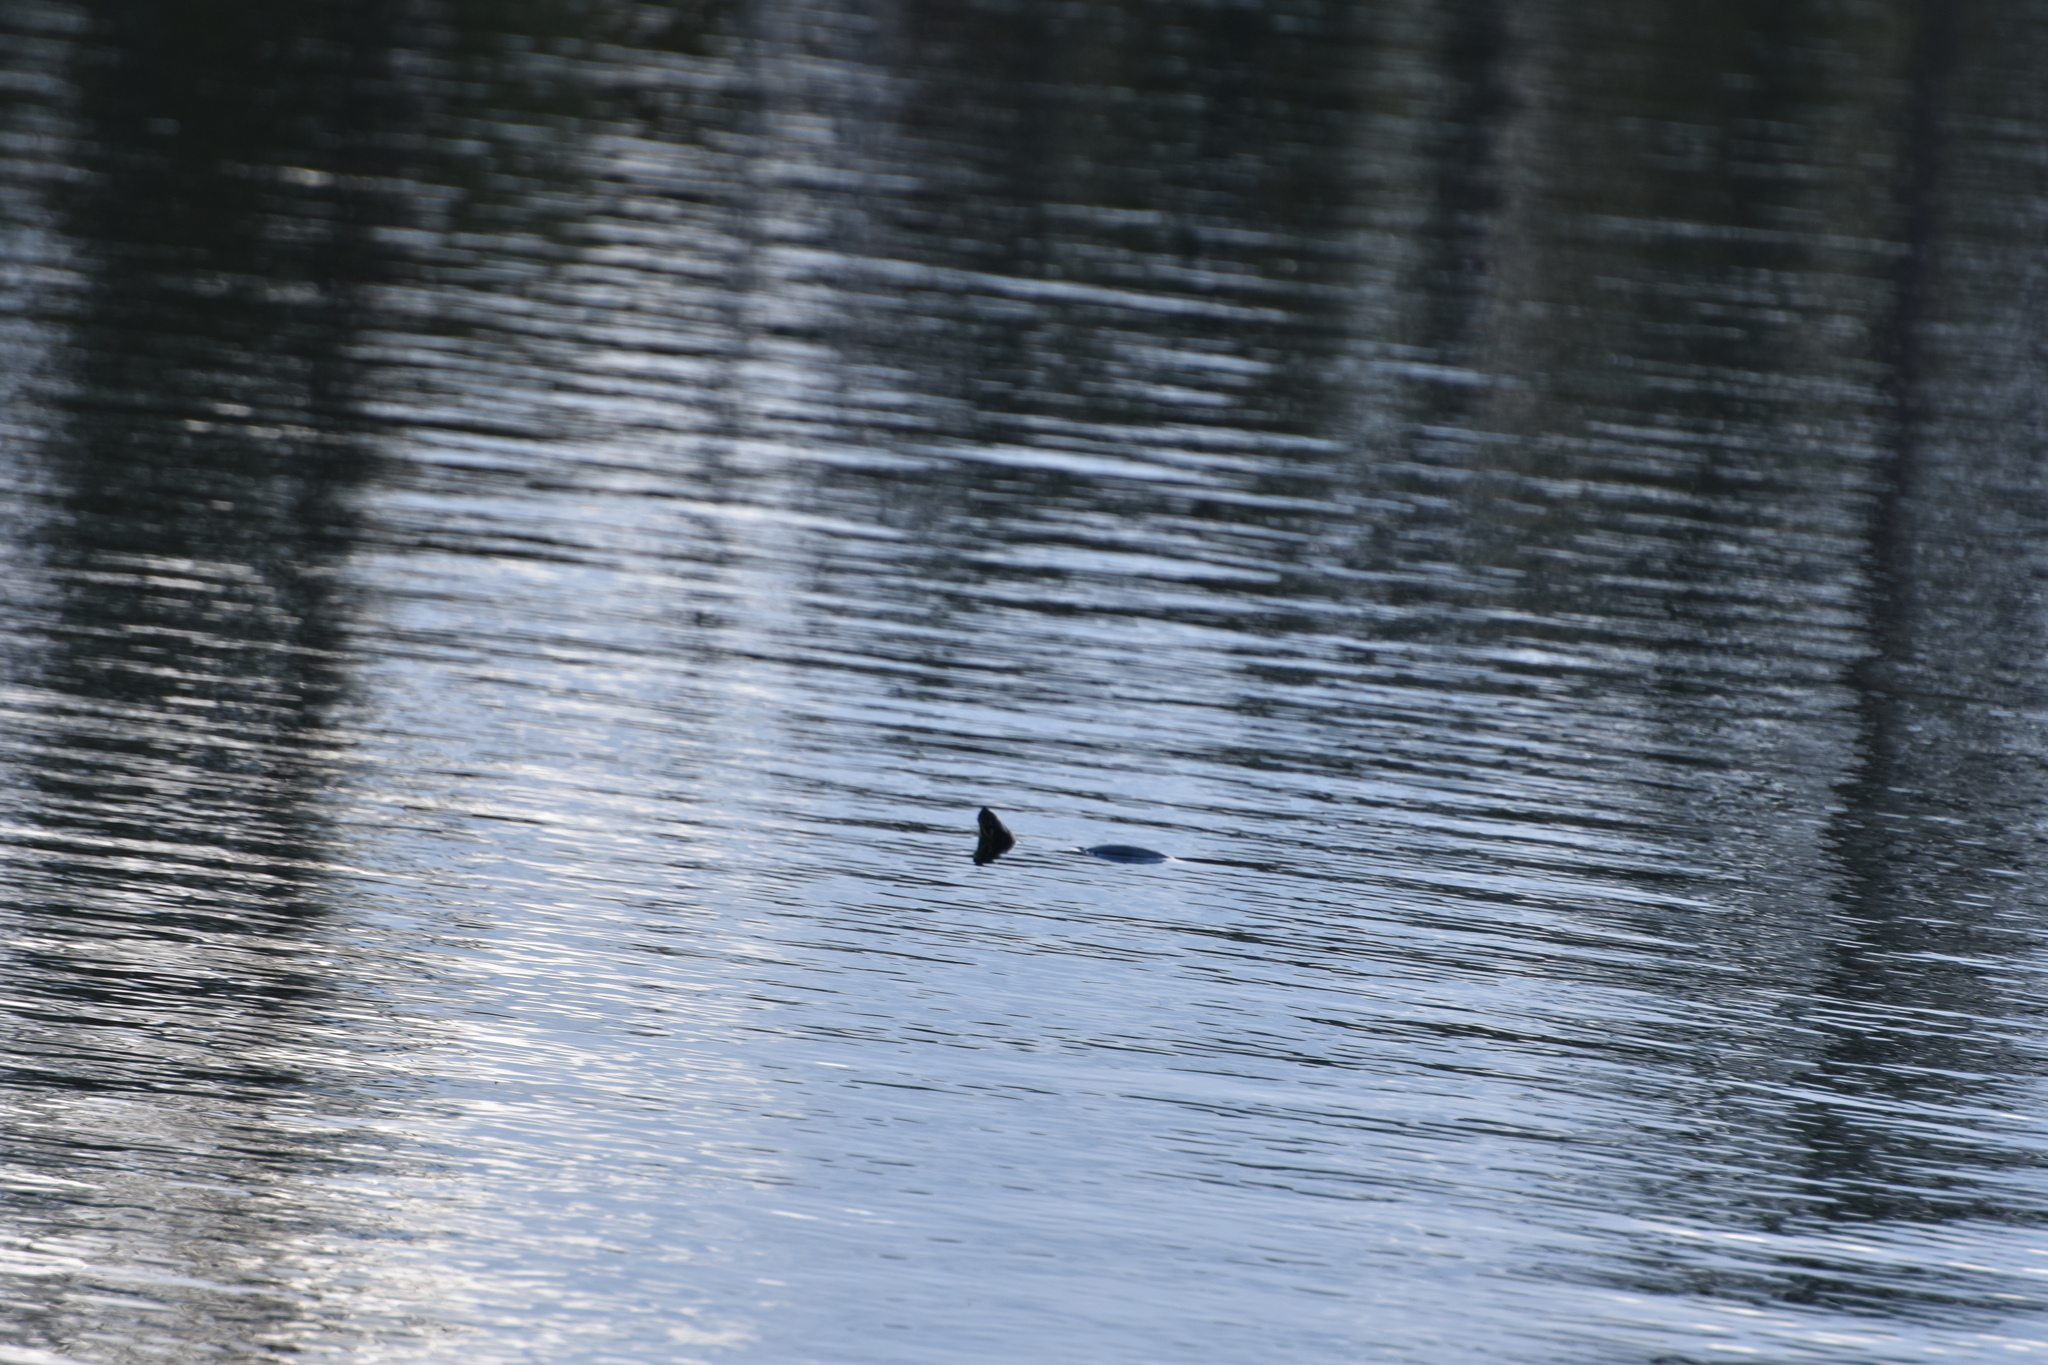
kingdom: Animalia
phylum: Chordata
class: Testudines
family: Emydidae
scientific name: Emydidae
